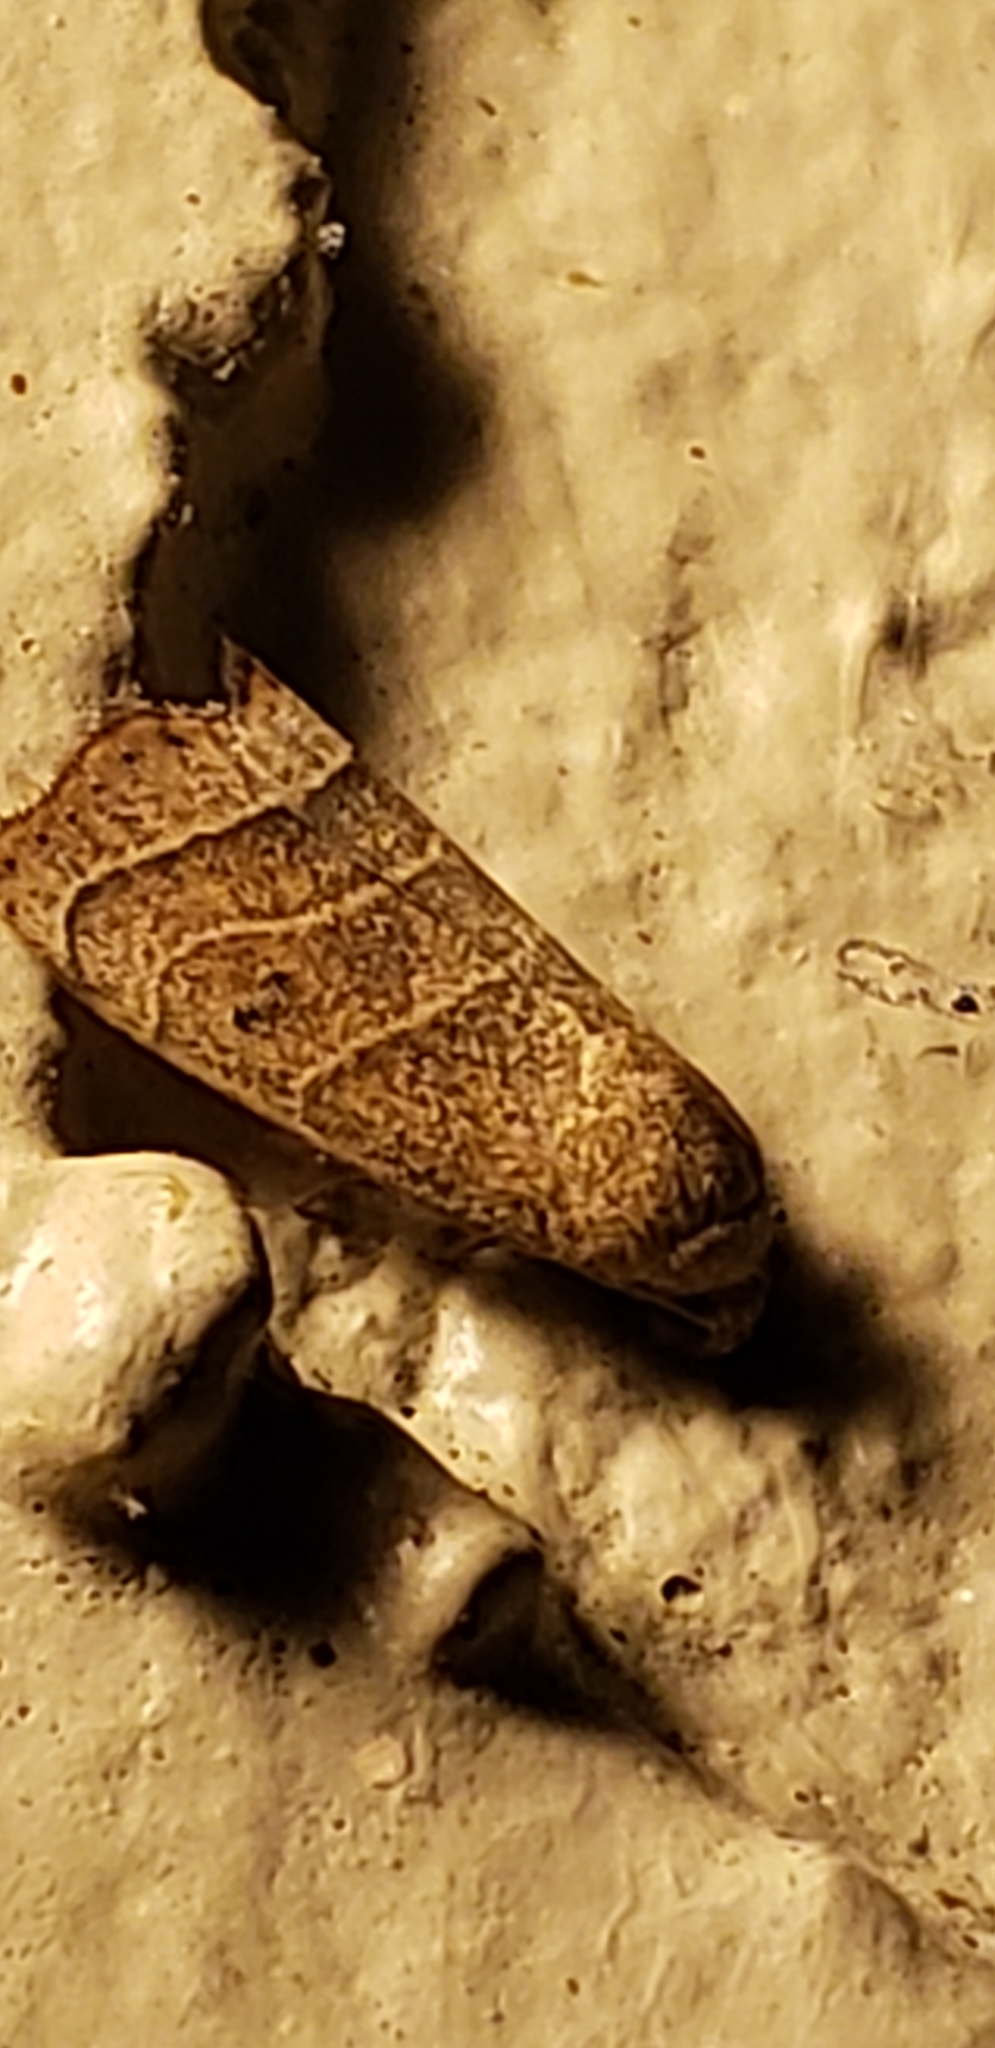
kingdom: Animalia
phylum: Arthropoda
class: Insecta
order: Lepidoptera
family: Noctuidae
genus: Bagisara
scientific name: Bagisara repanda
